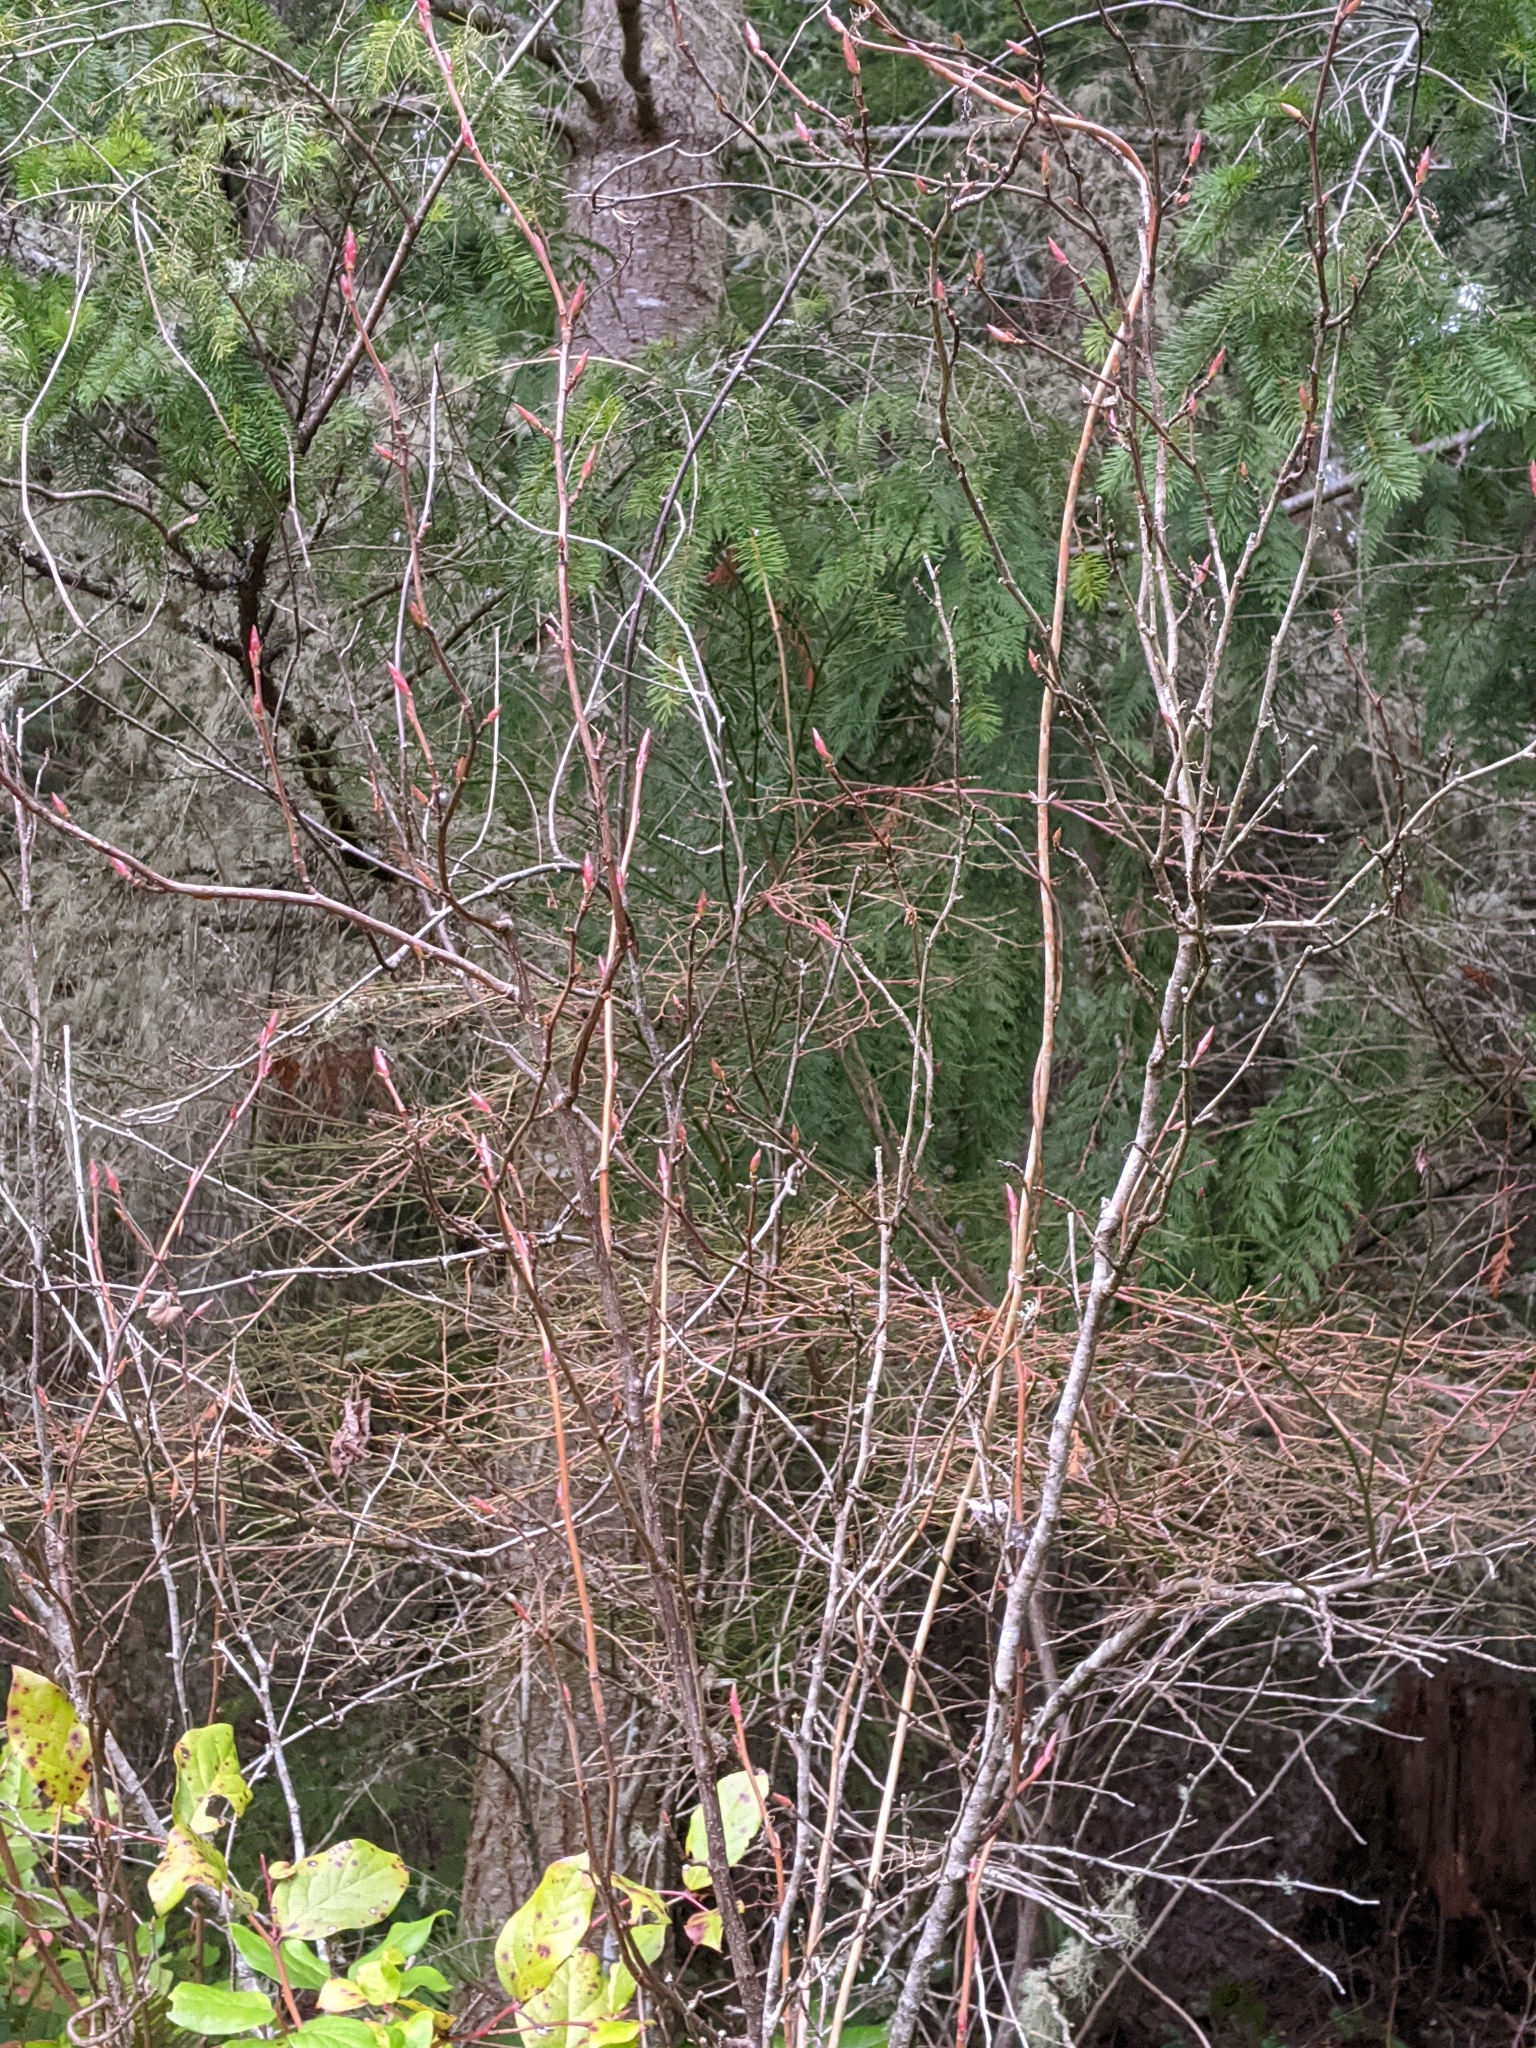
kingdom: Plantae
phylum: Tracheophyta
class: Magnoliopsida
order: Saxifragales
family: Grossulariaceae
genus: Ribes
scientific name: Ribes sanguineum
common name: Flowering currant
